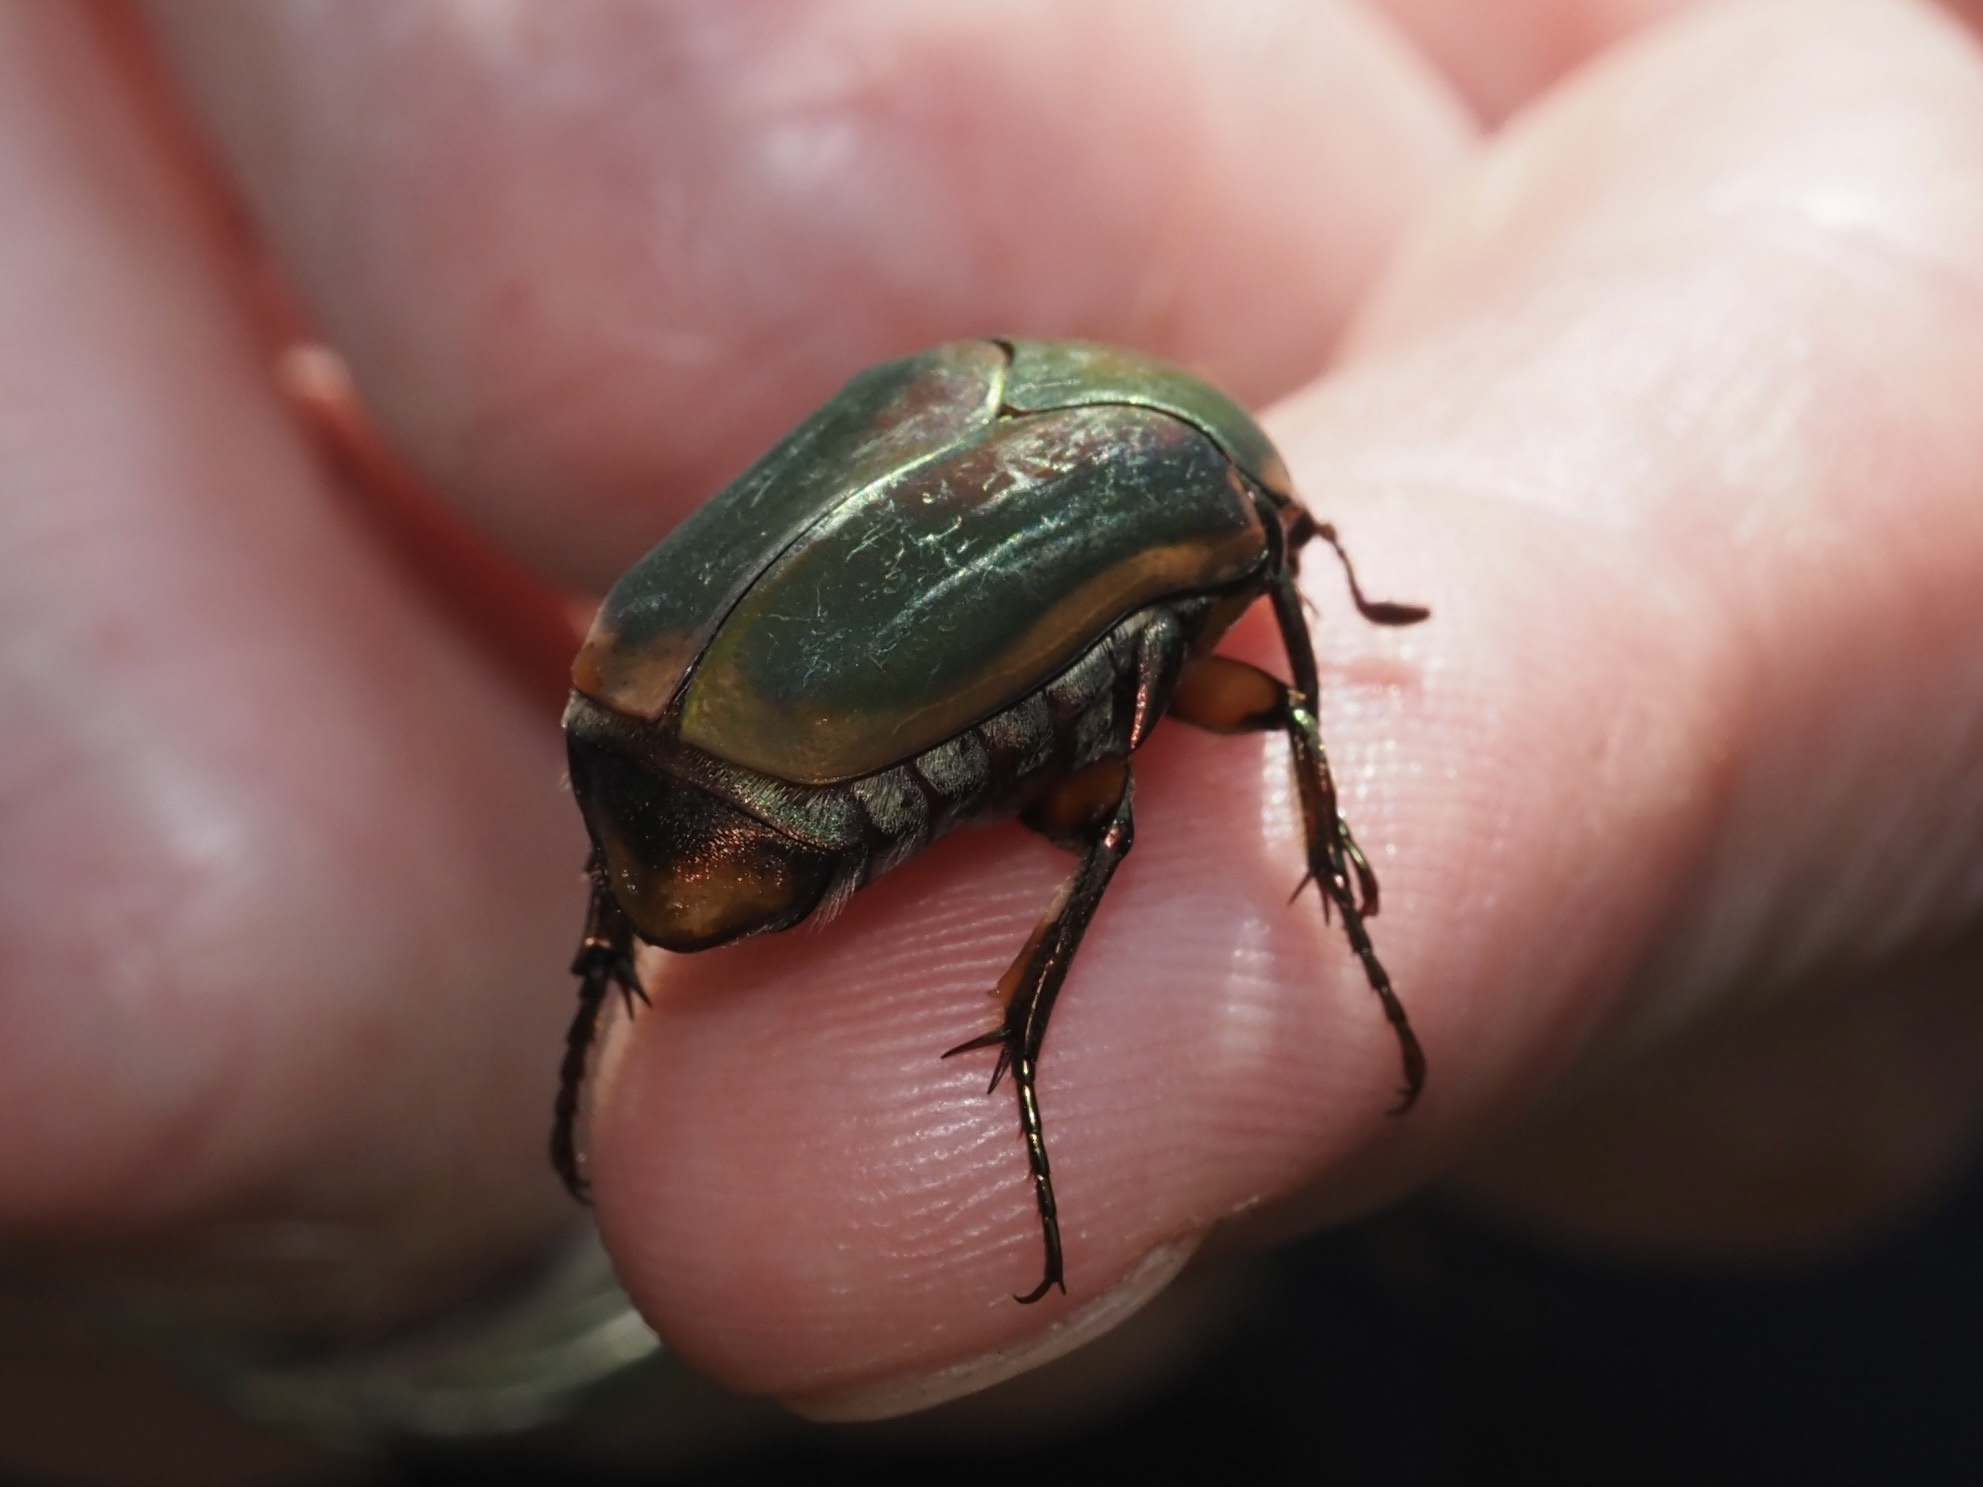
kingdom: Animalia
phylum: Arthropoda
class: Insecta
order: Coleoptera
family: Scarabaeidae
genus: Cotinis
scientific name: Cotinis nitida
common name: Common green june beetle
